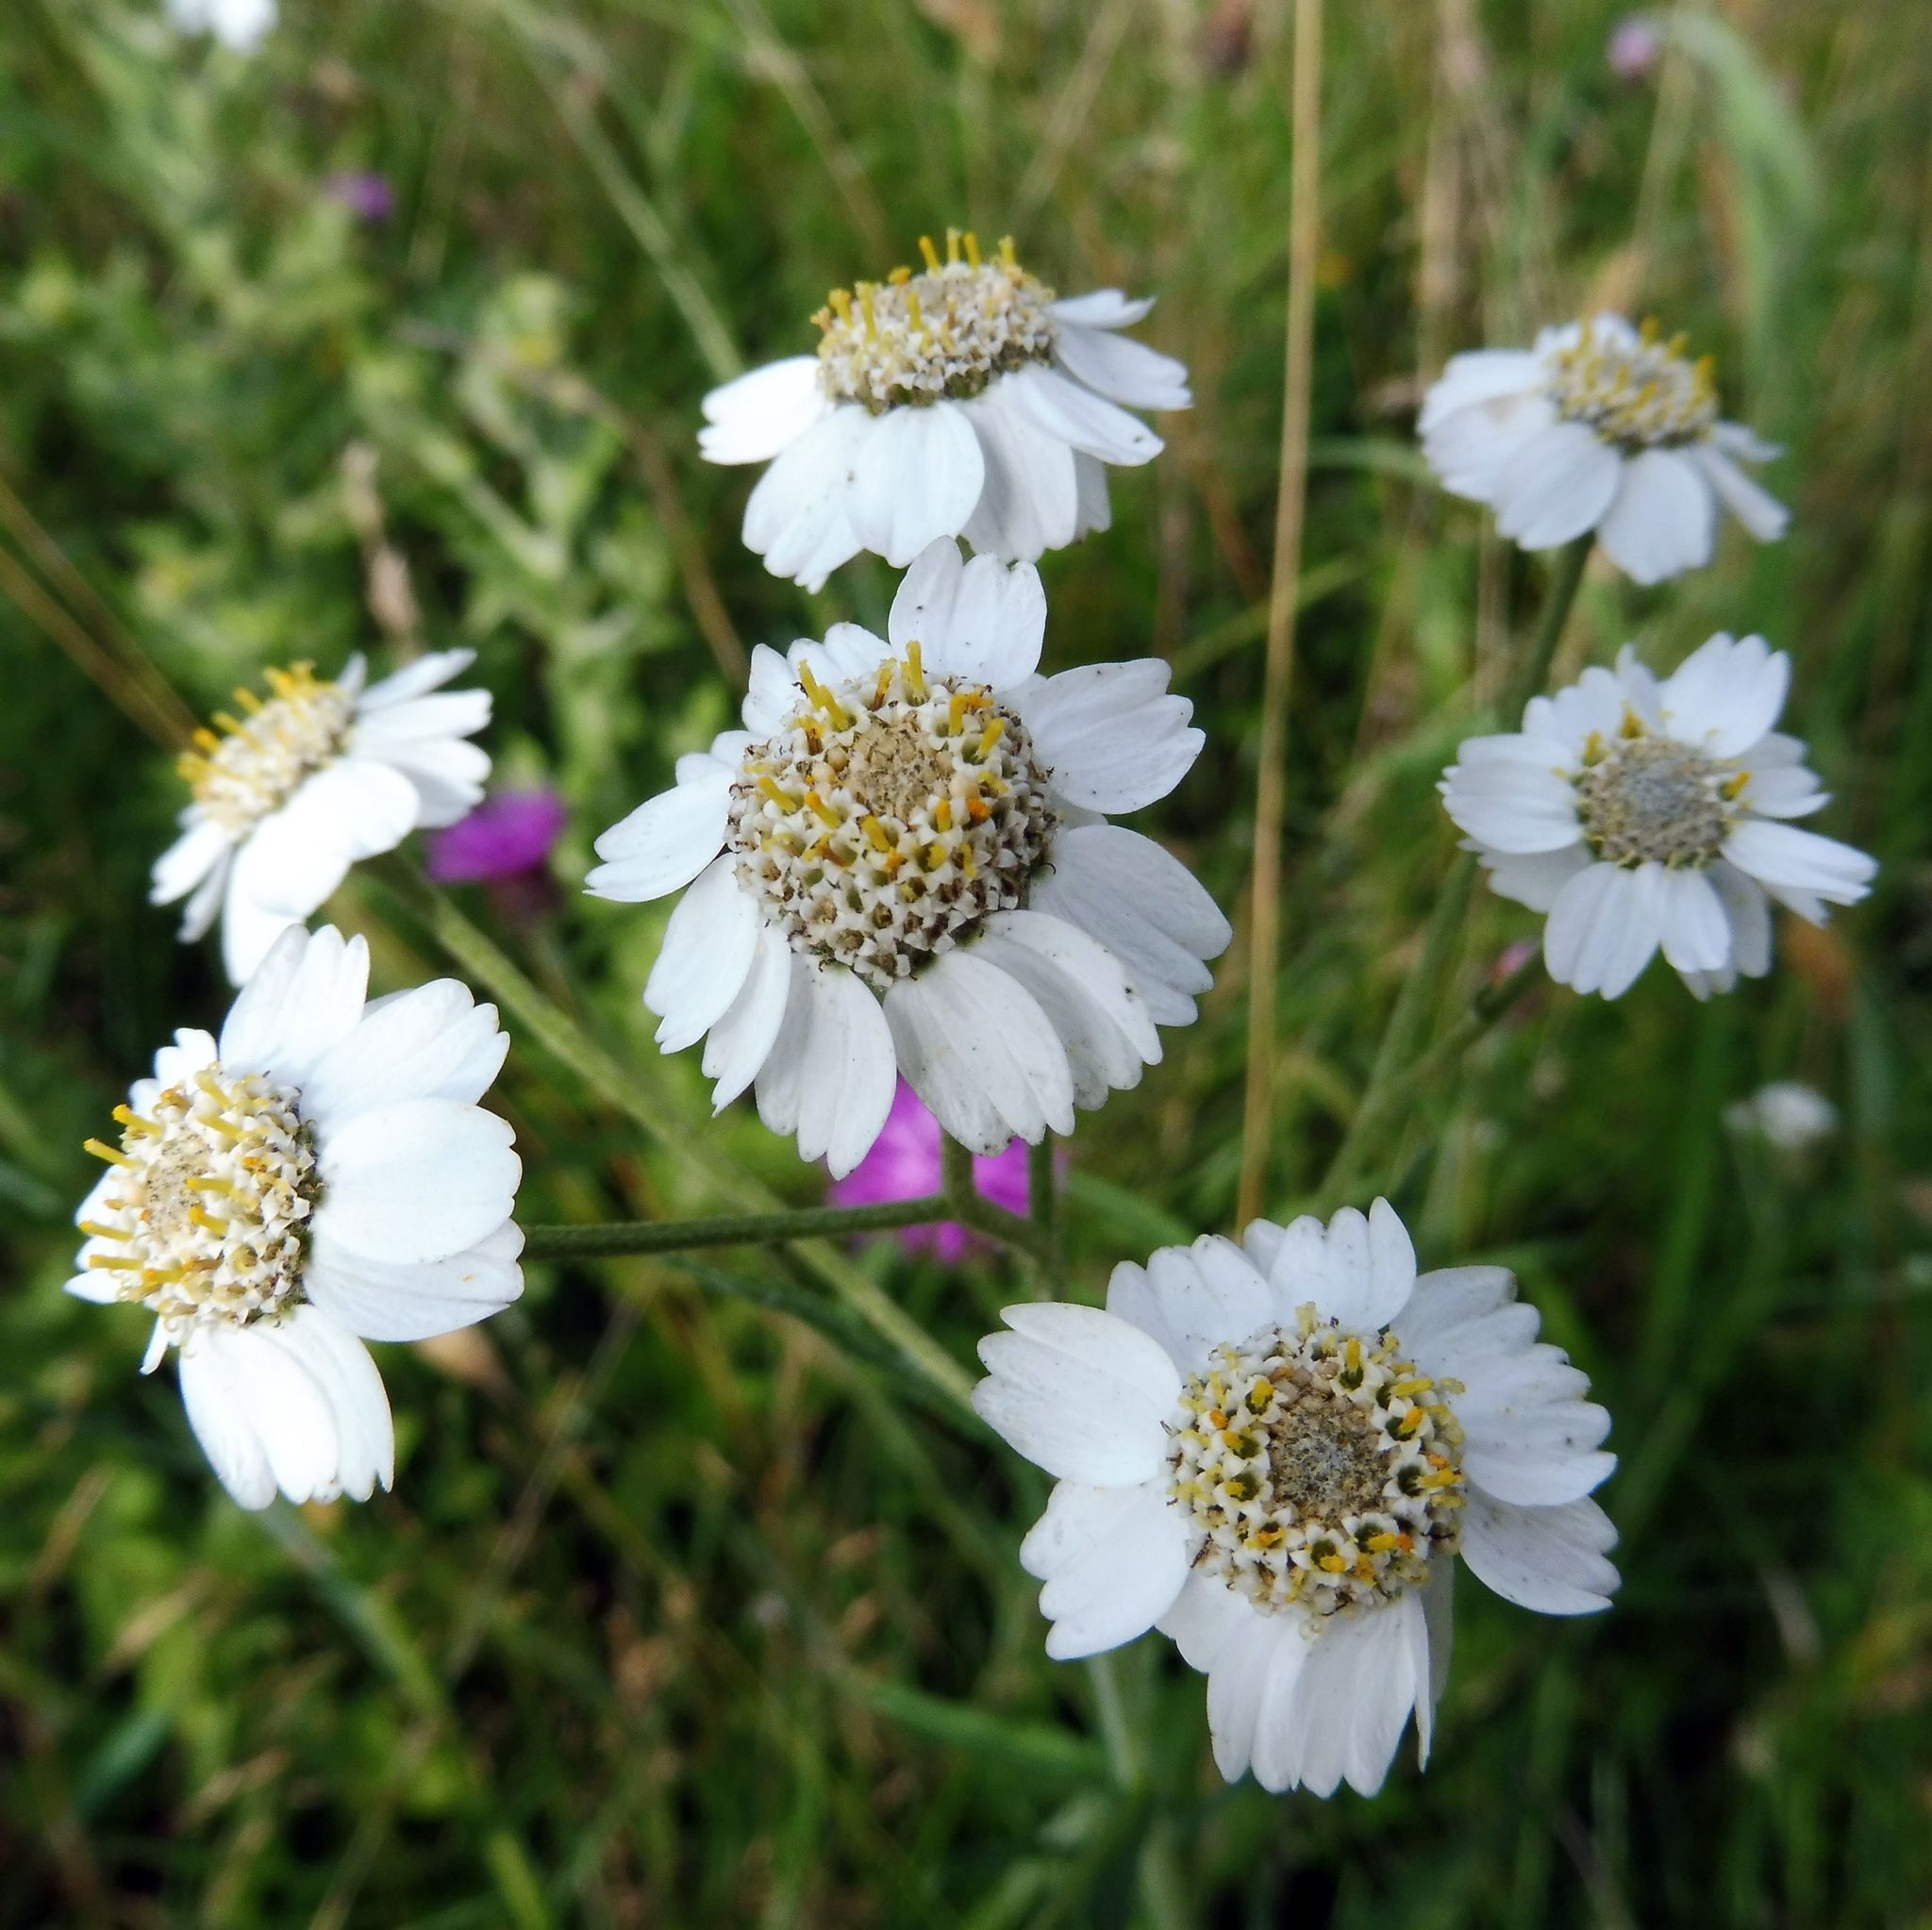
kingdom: Plantae
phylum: Tracheophyta
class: Magnoliopsida
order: Asterales
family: Asteraceae
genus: Achillea
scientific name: Achillea ptarmica
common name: Sneezeweed
